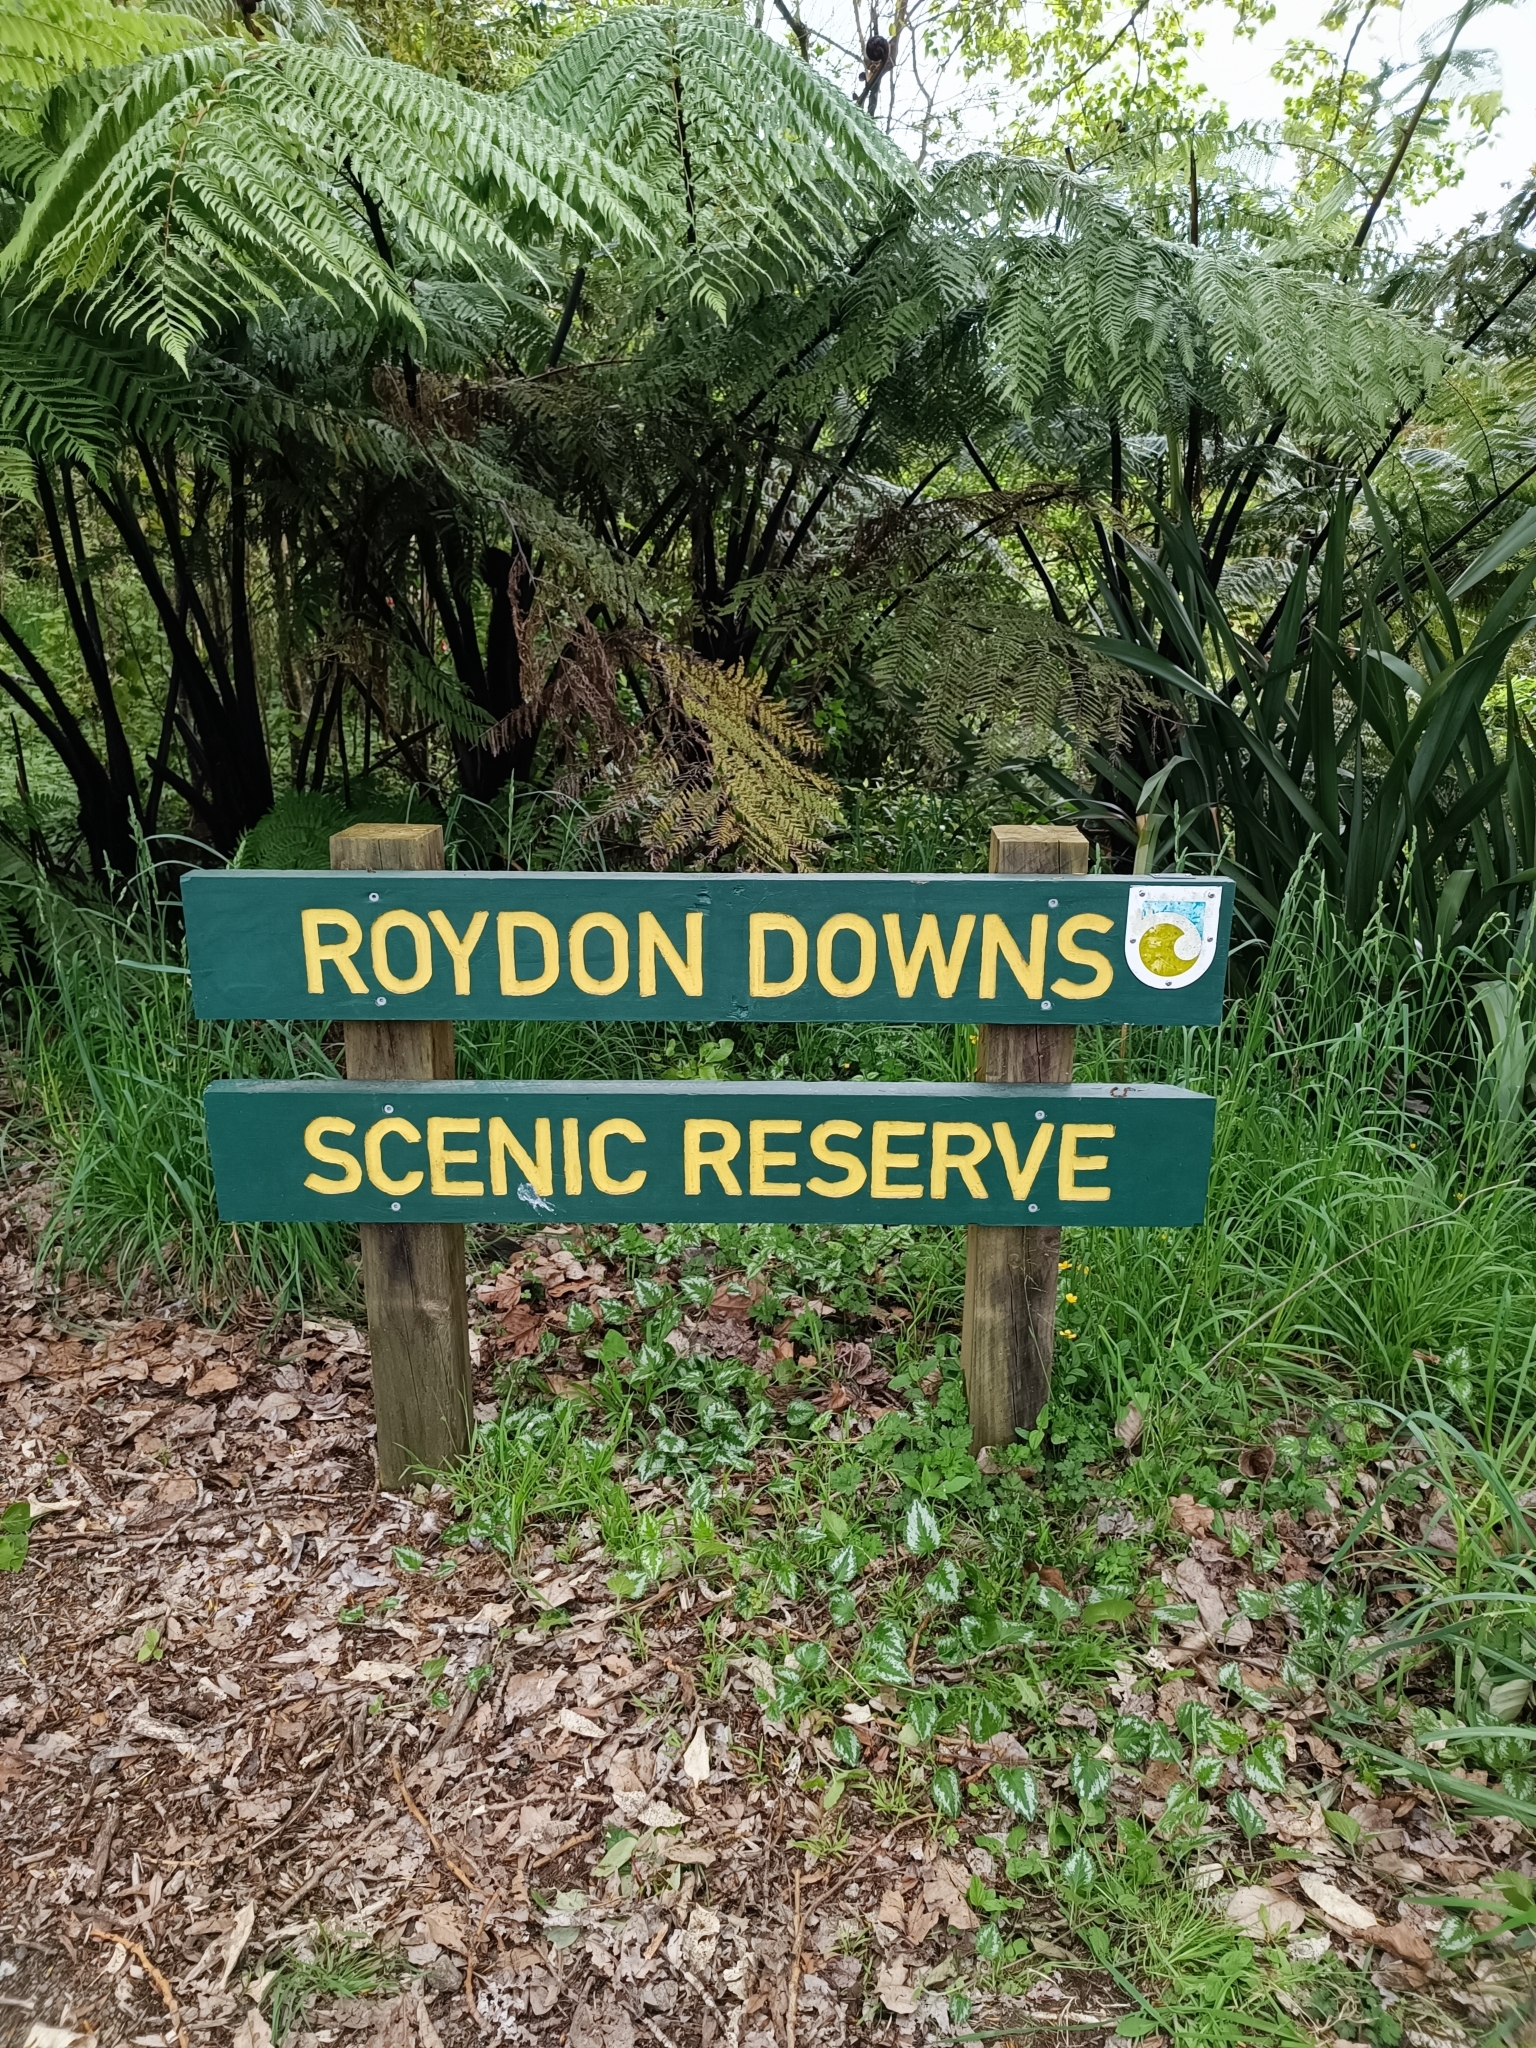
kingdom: Plantae
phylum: Tracheophyta
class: Magnoliopsida
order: Lamiales
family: Lamiaceae
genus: Lamium
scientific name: Lamium galeobdolon
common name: Yellow archangel
